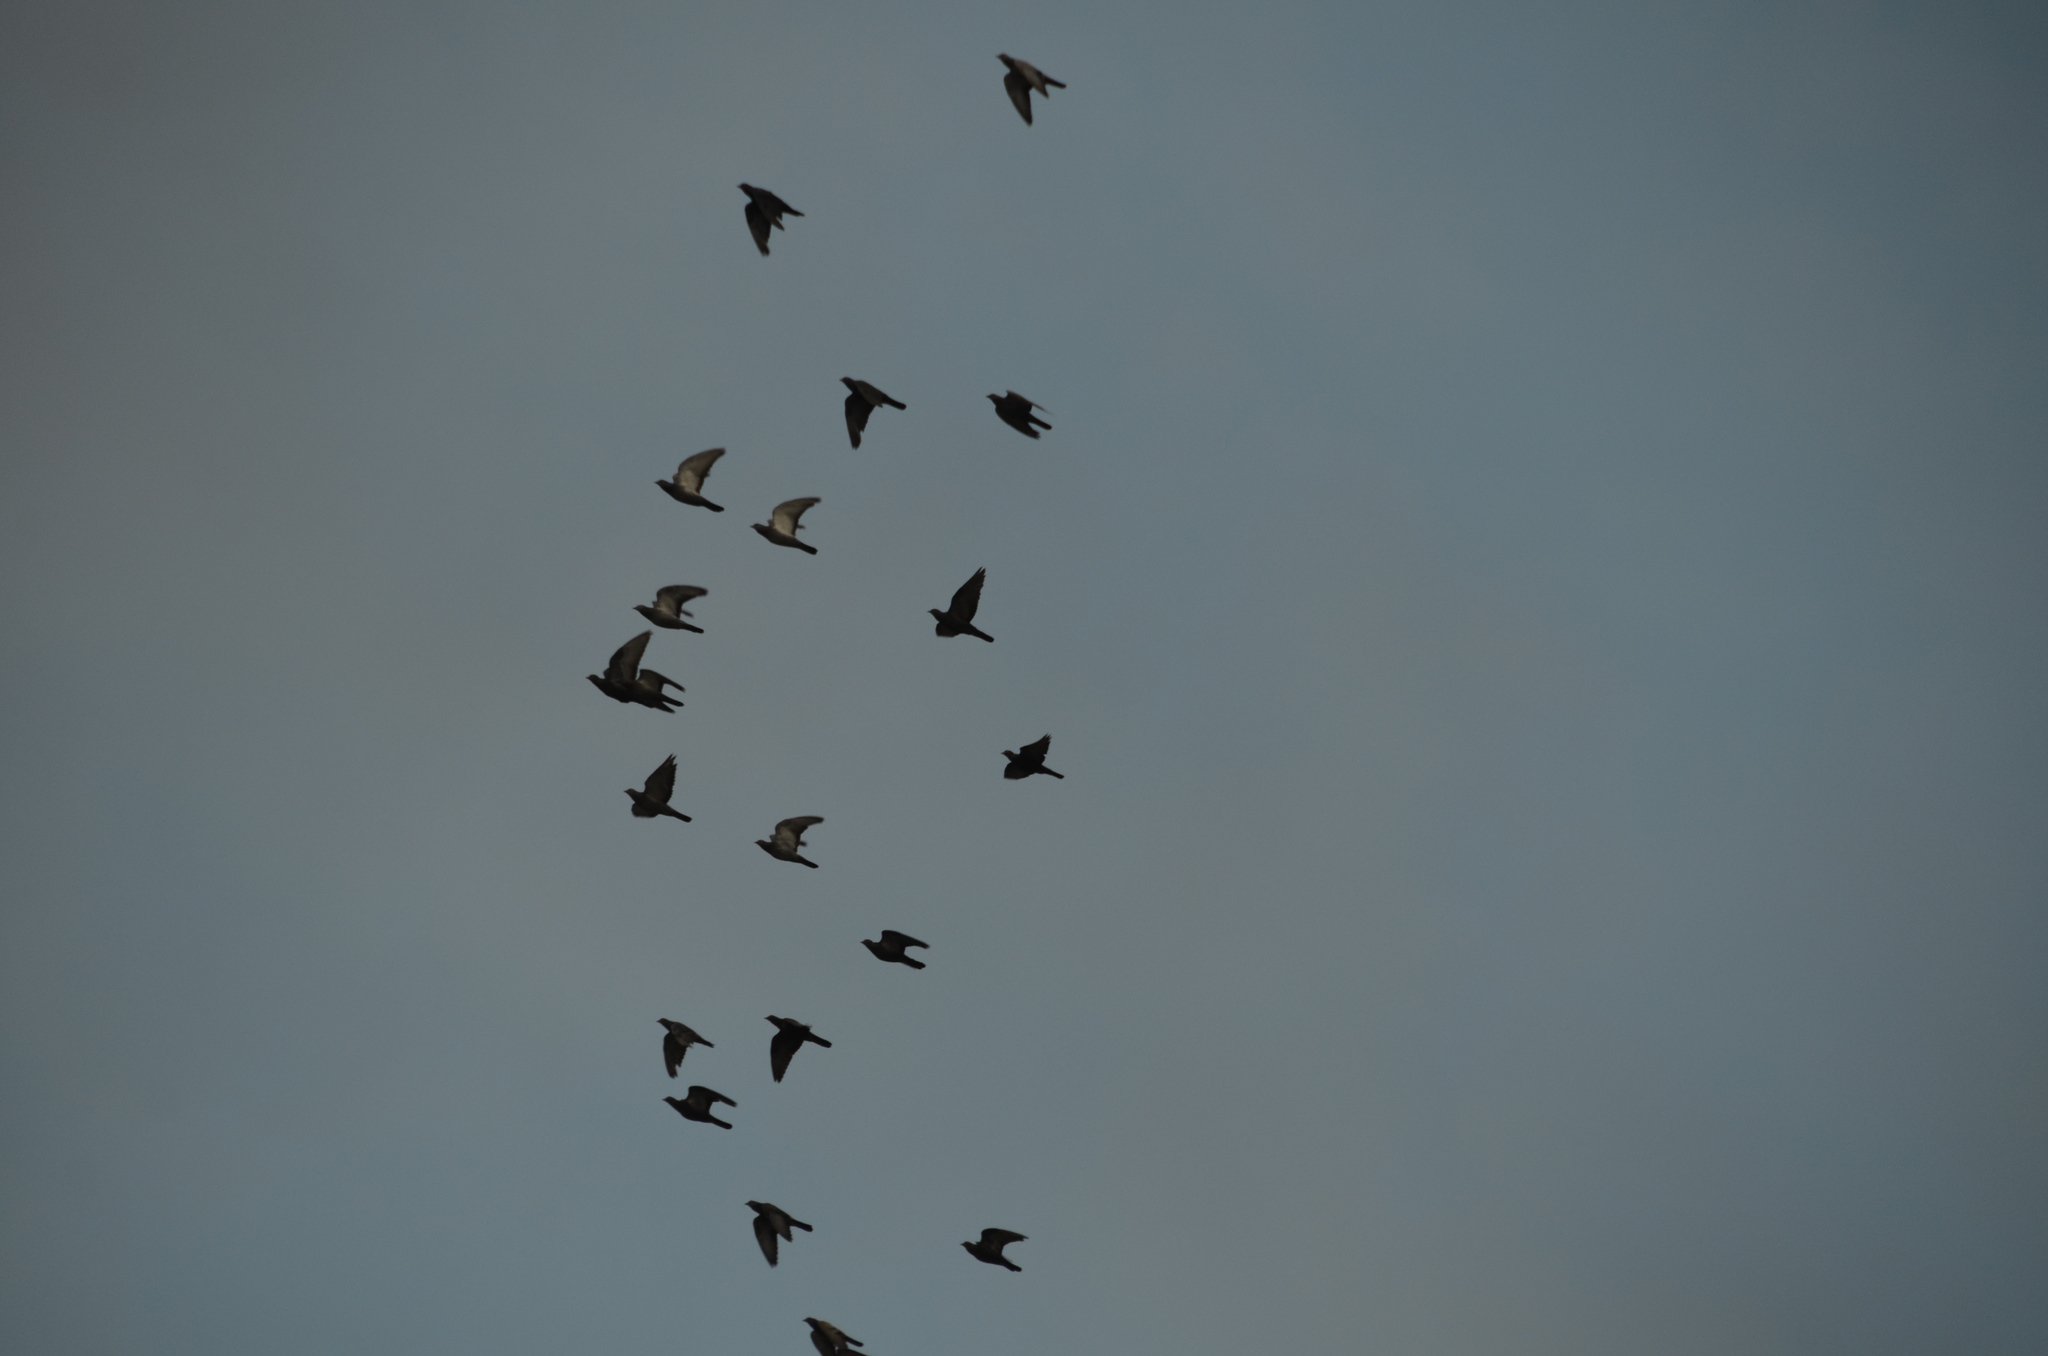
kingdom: Animalia
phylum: Chordata
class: Aves
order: Columbiformes
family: Columbidae
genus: Columba
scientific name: Columba livia
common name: Rock pigeon
